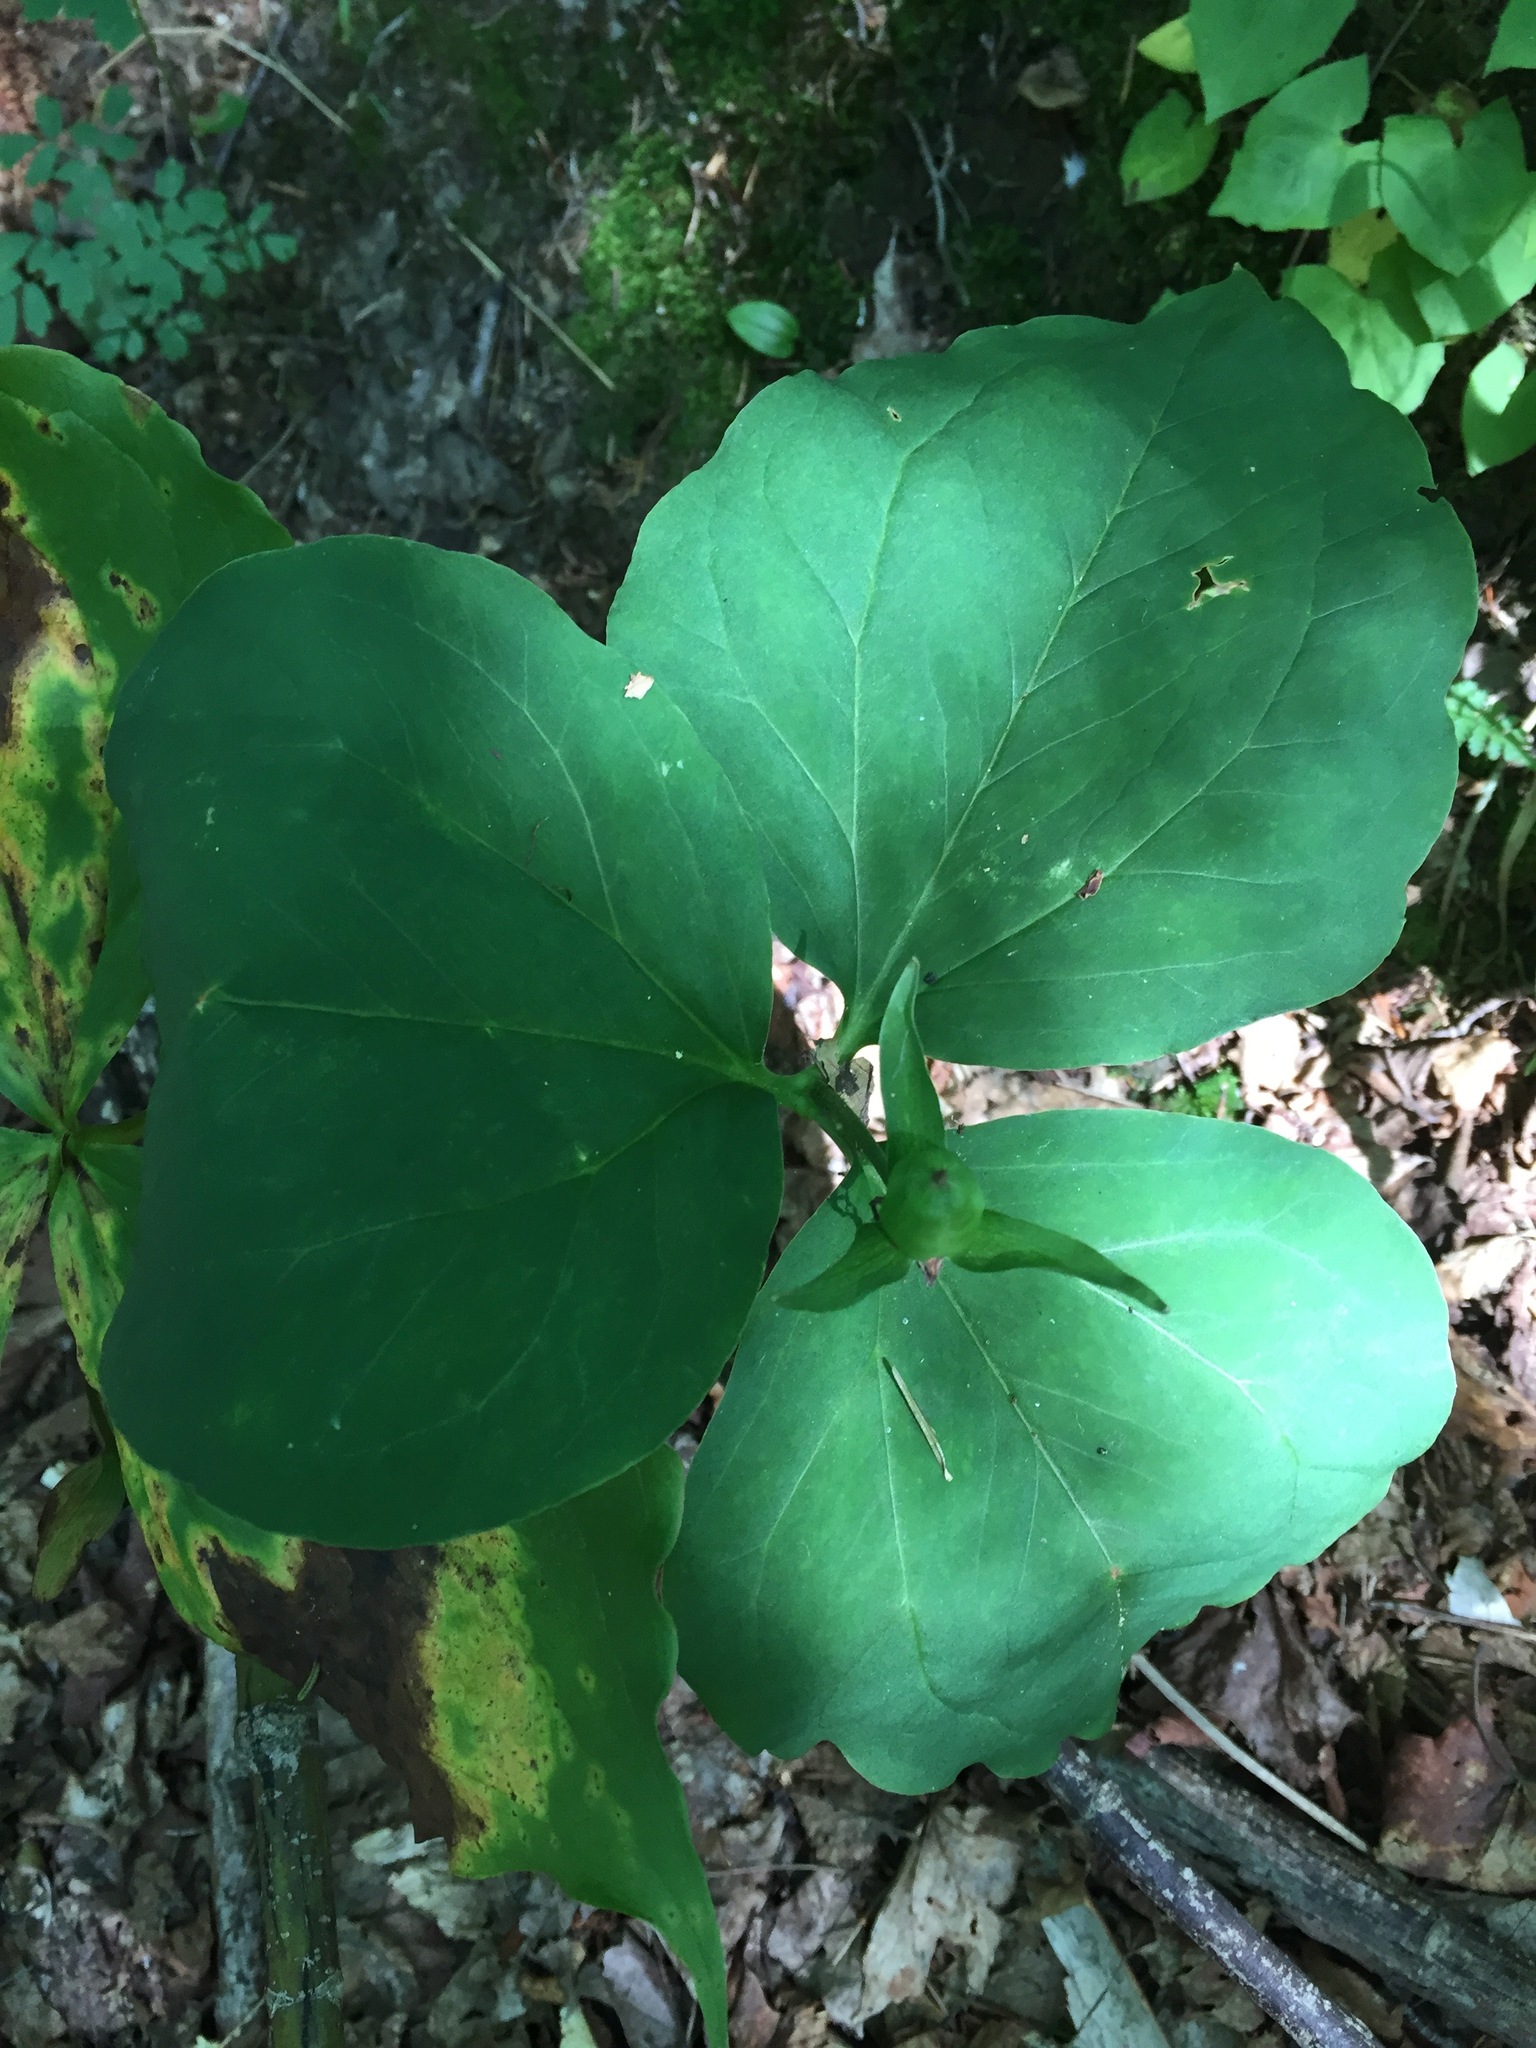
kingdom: Plantae
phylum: Tracheophyta
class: Liliopsida
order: Liliales
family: Melanthiaceae
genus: Trillium
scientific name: Trillium undulatum
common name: Paint trillium
